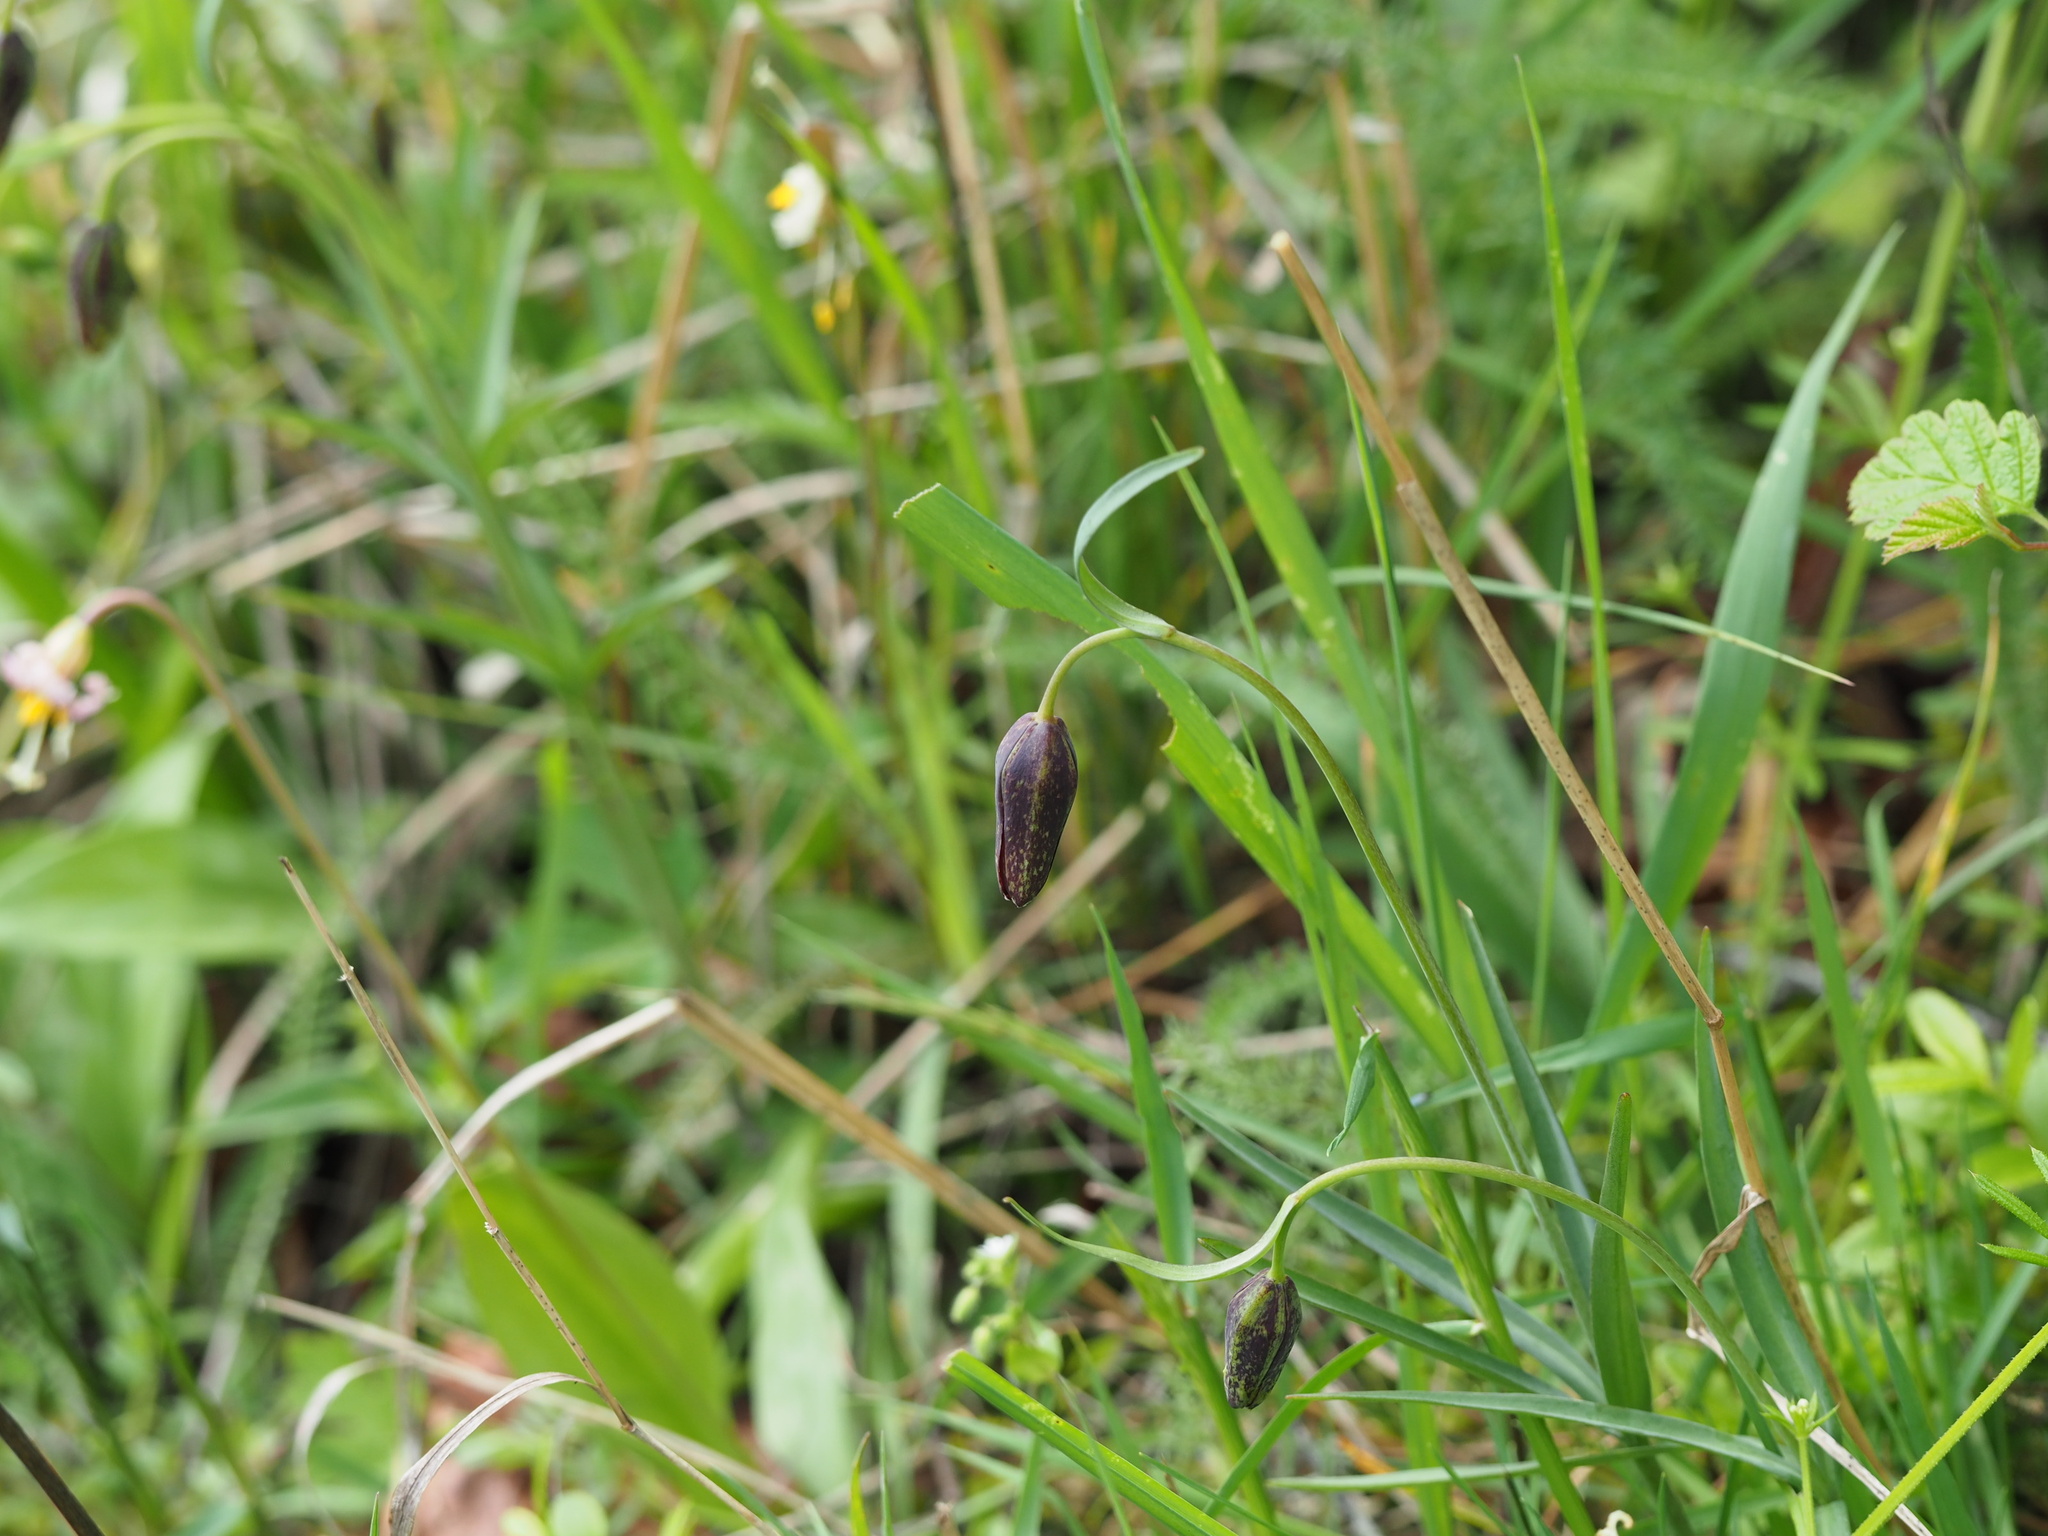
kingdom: Plantae
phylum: Tracheophyta
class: Liliopsida
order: Liliales
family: Liliaceae
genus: Fritillaria
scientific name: Fritillaria affinis
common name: Ojai fritillary
